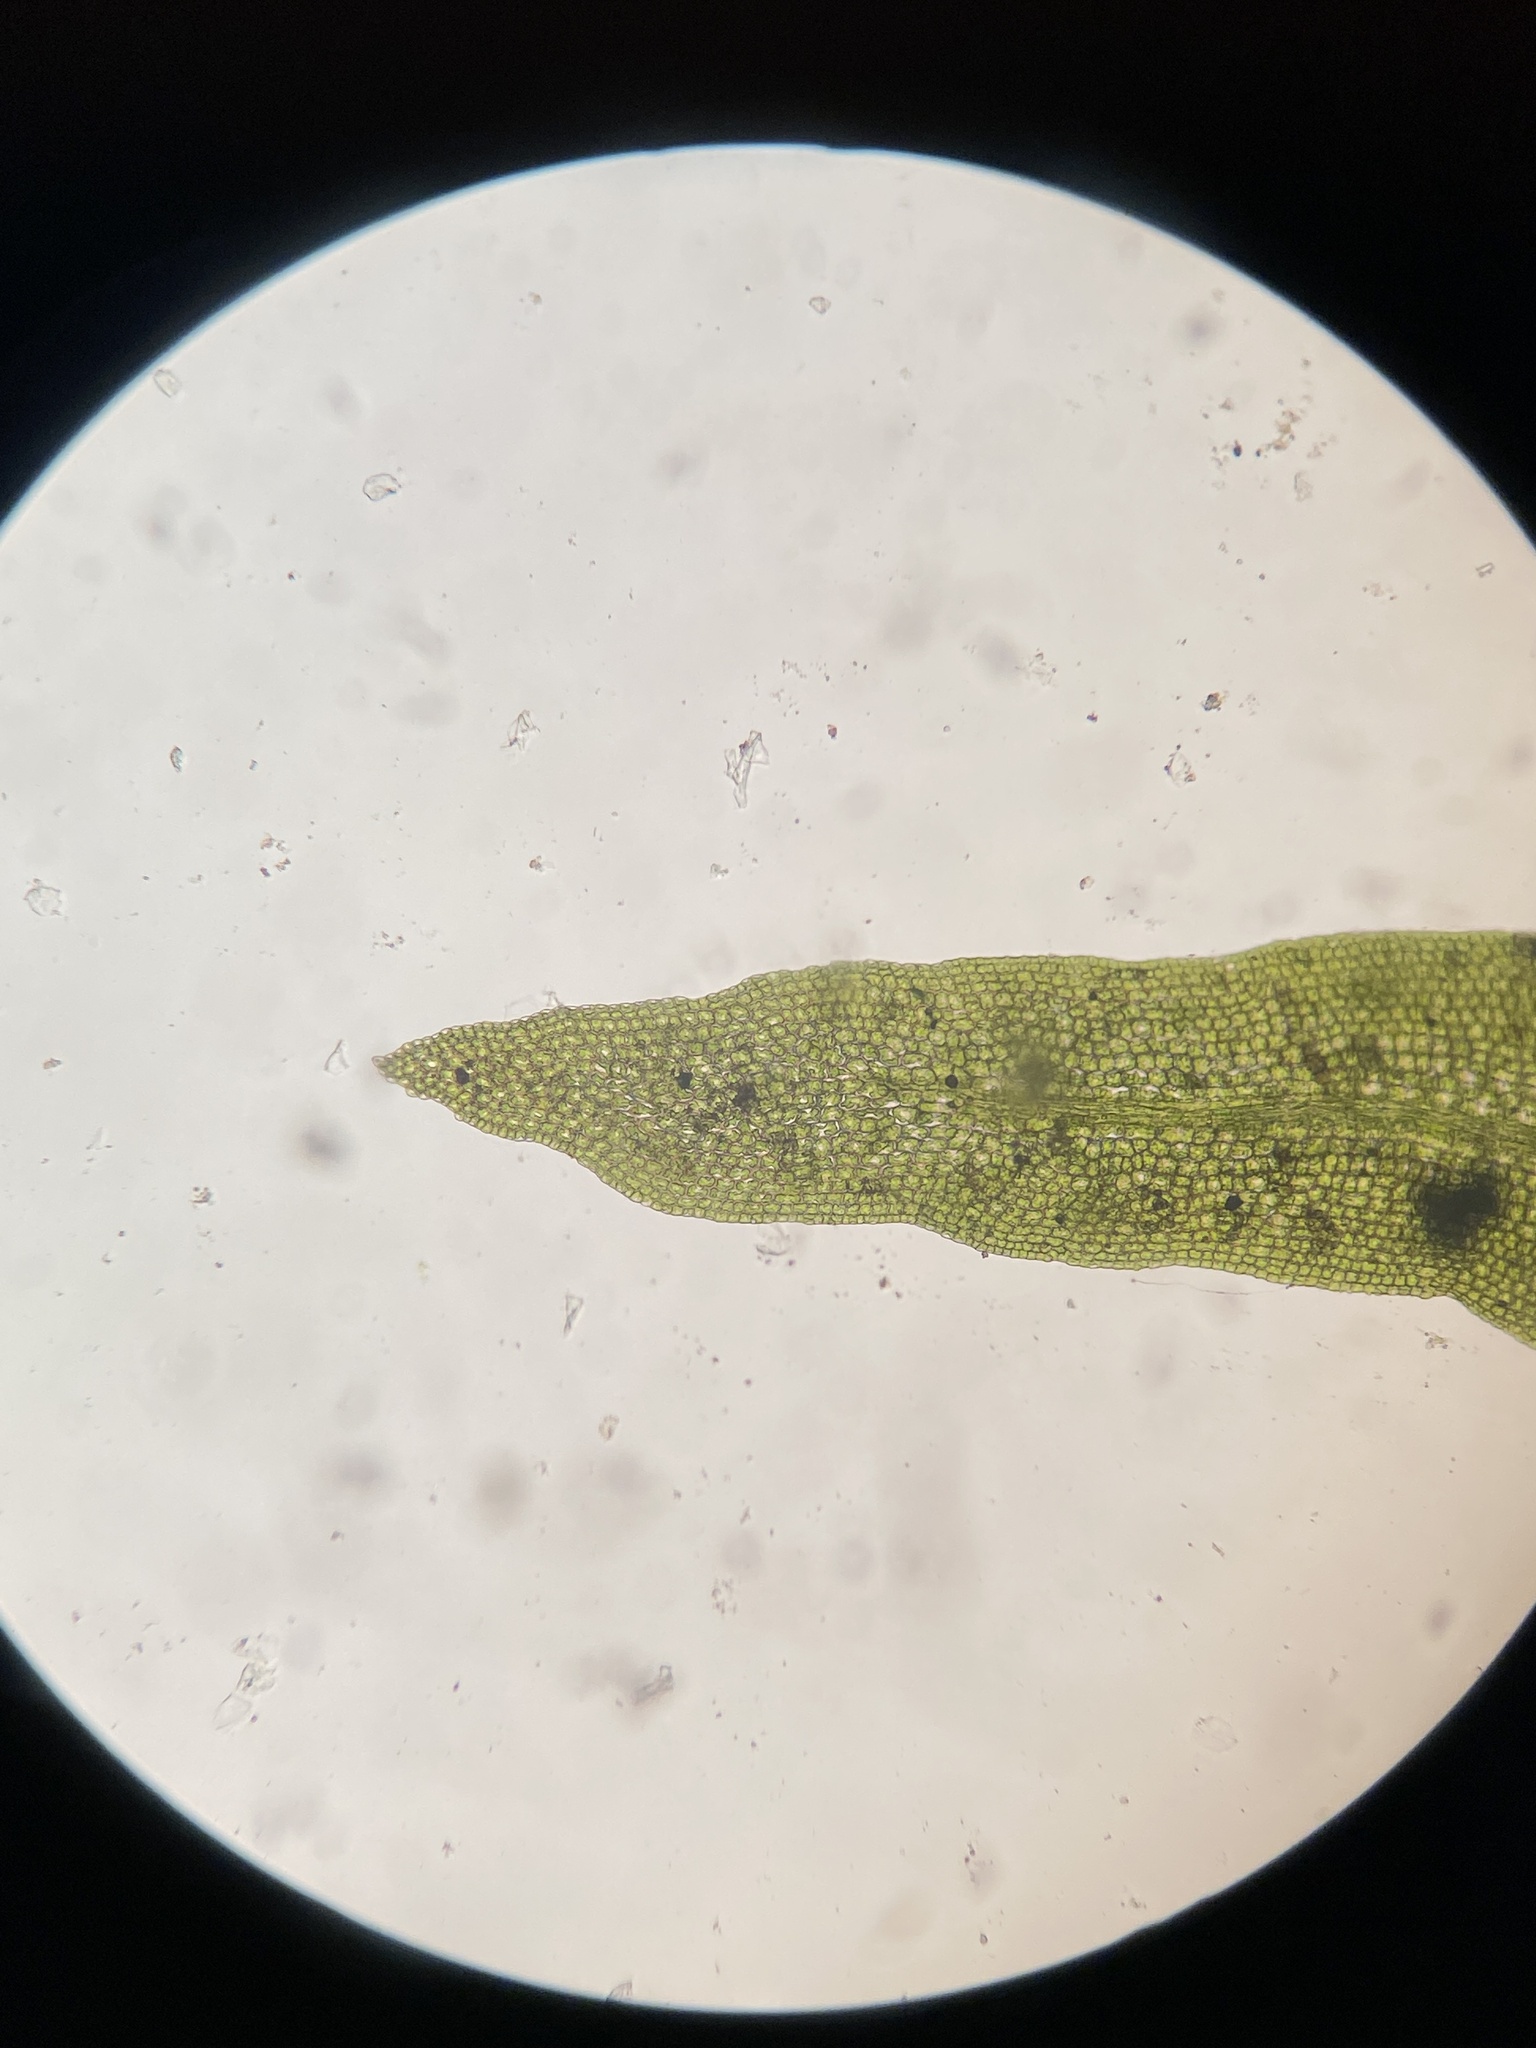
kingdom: Plantae
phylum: Bryophyta
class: Bryopsida
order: Dicranales
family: Fissidentaceae
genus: Fissidens
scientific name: Fissidens fontanus
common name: Fountain pocket-moss
